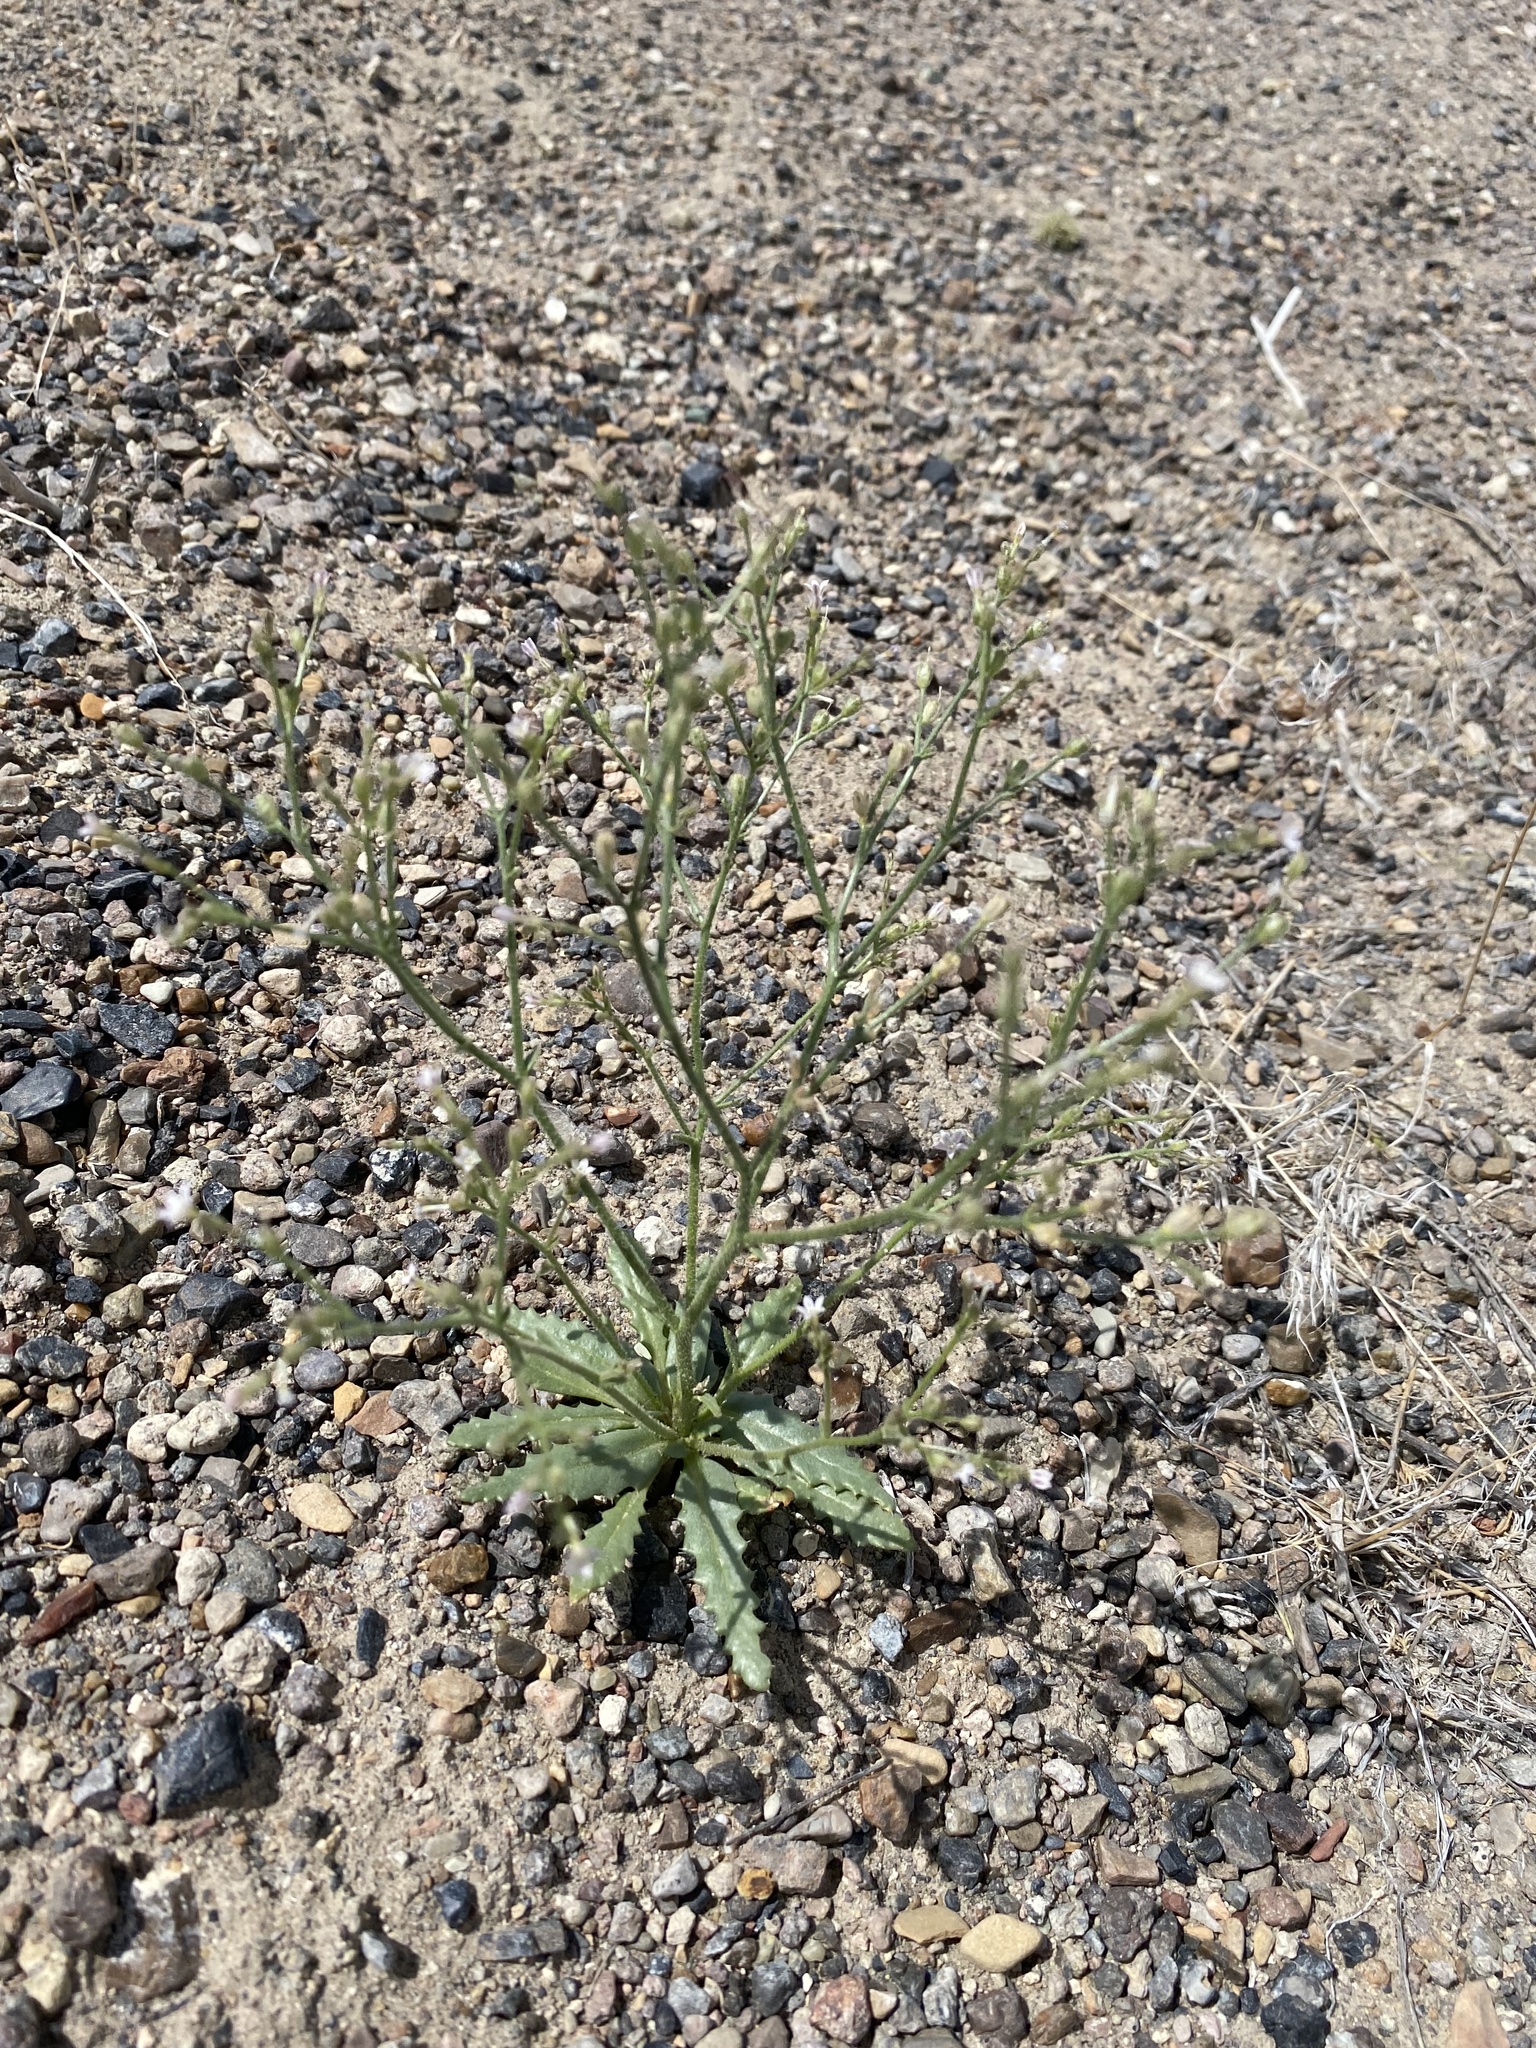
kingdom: Plantae
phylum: Tracheophyta
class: Magnoliopsida
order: Ericales
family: Polemoniaceae
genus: Aliciella
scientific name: Aliciella lottiae
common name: Lott's gilia
